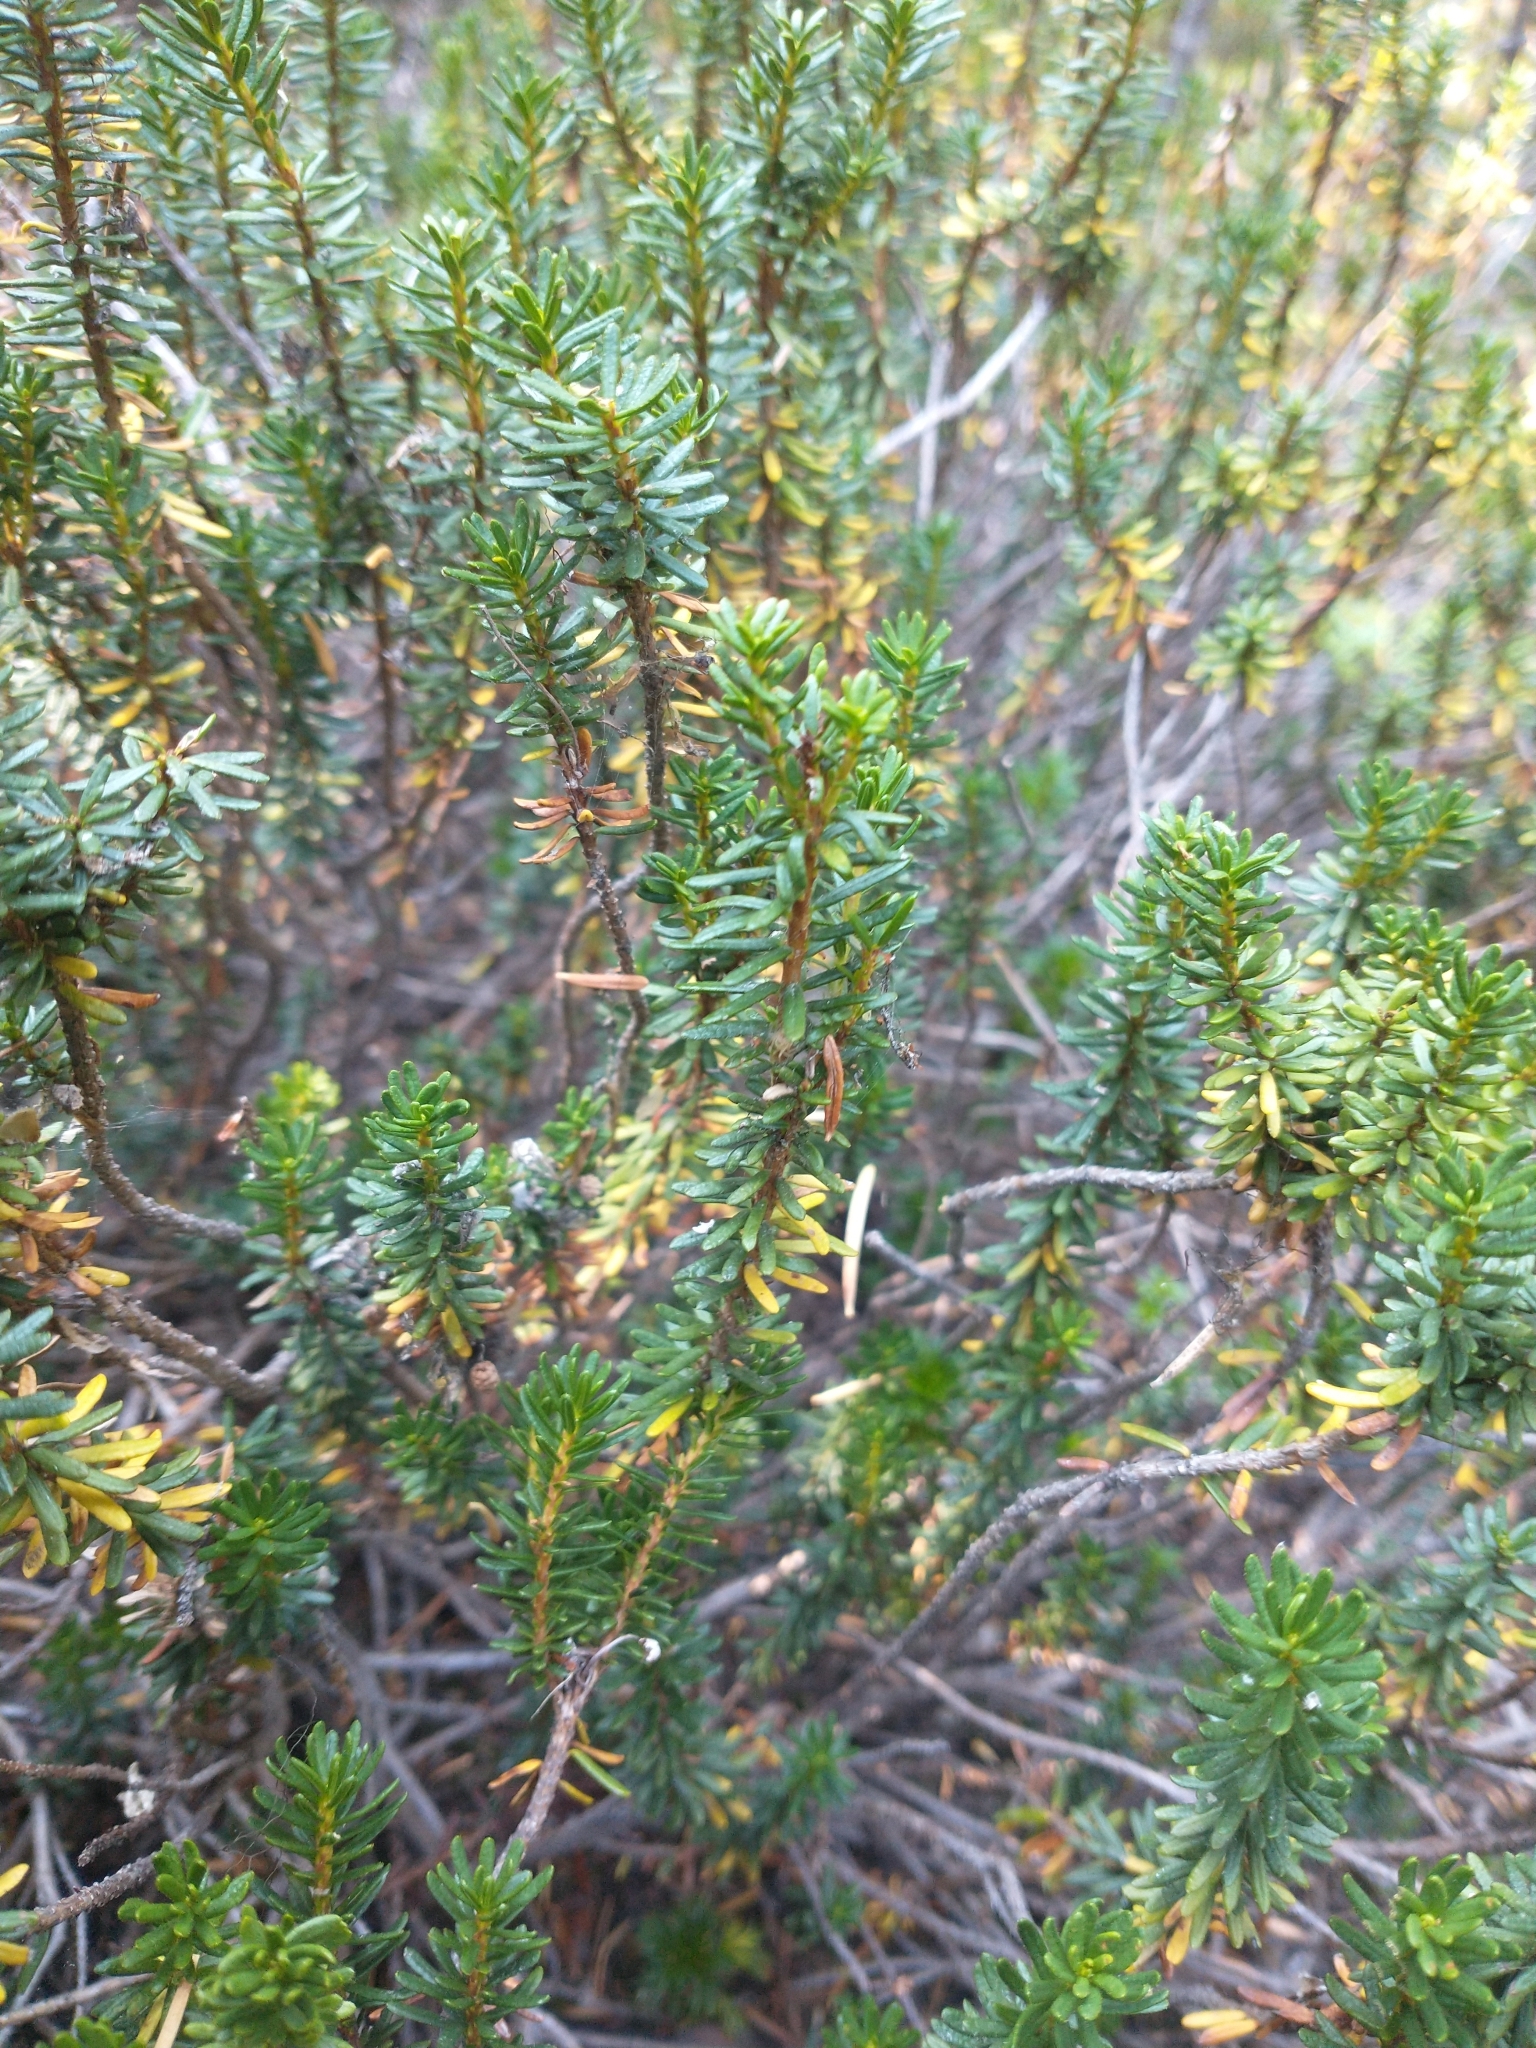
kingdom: Plantae
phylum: Tracheophyta
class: Magnoliopsida
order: Ericales
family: Ericaceae
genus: Phyllodoce
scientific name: Phyllodoce empetriformis
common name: Pink mountain heather
